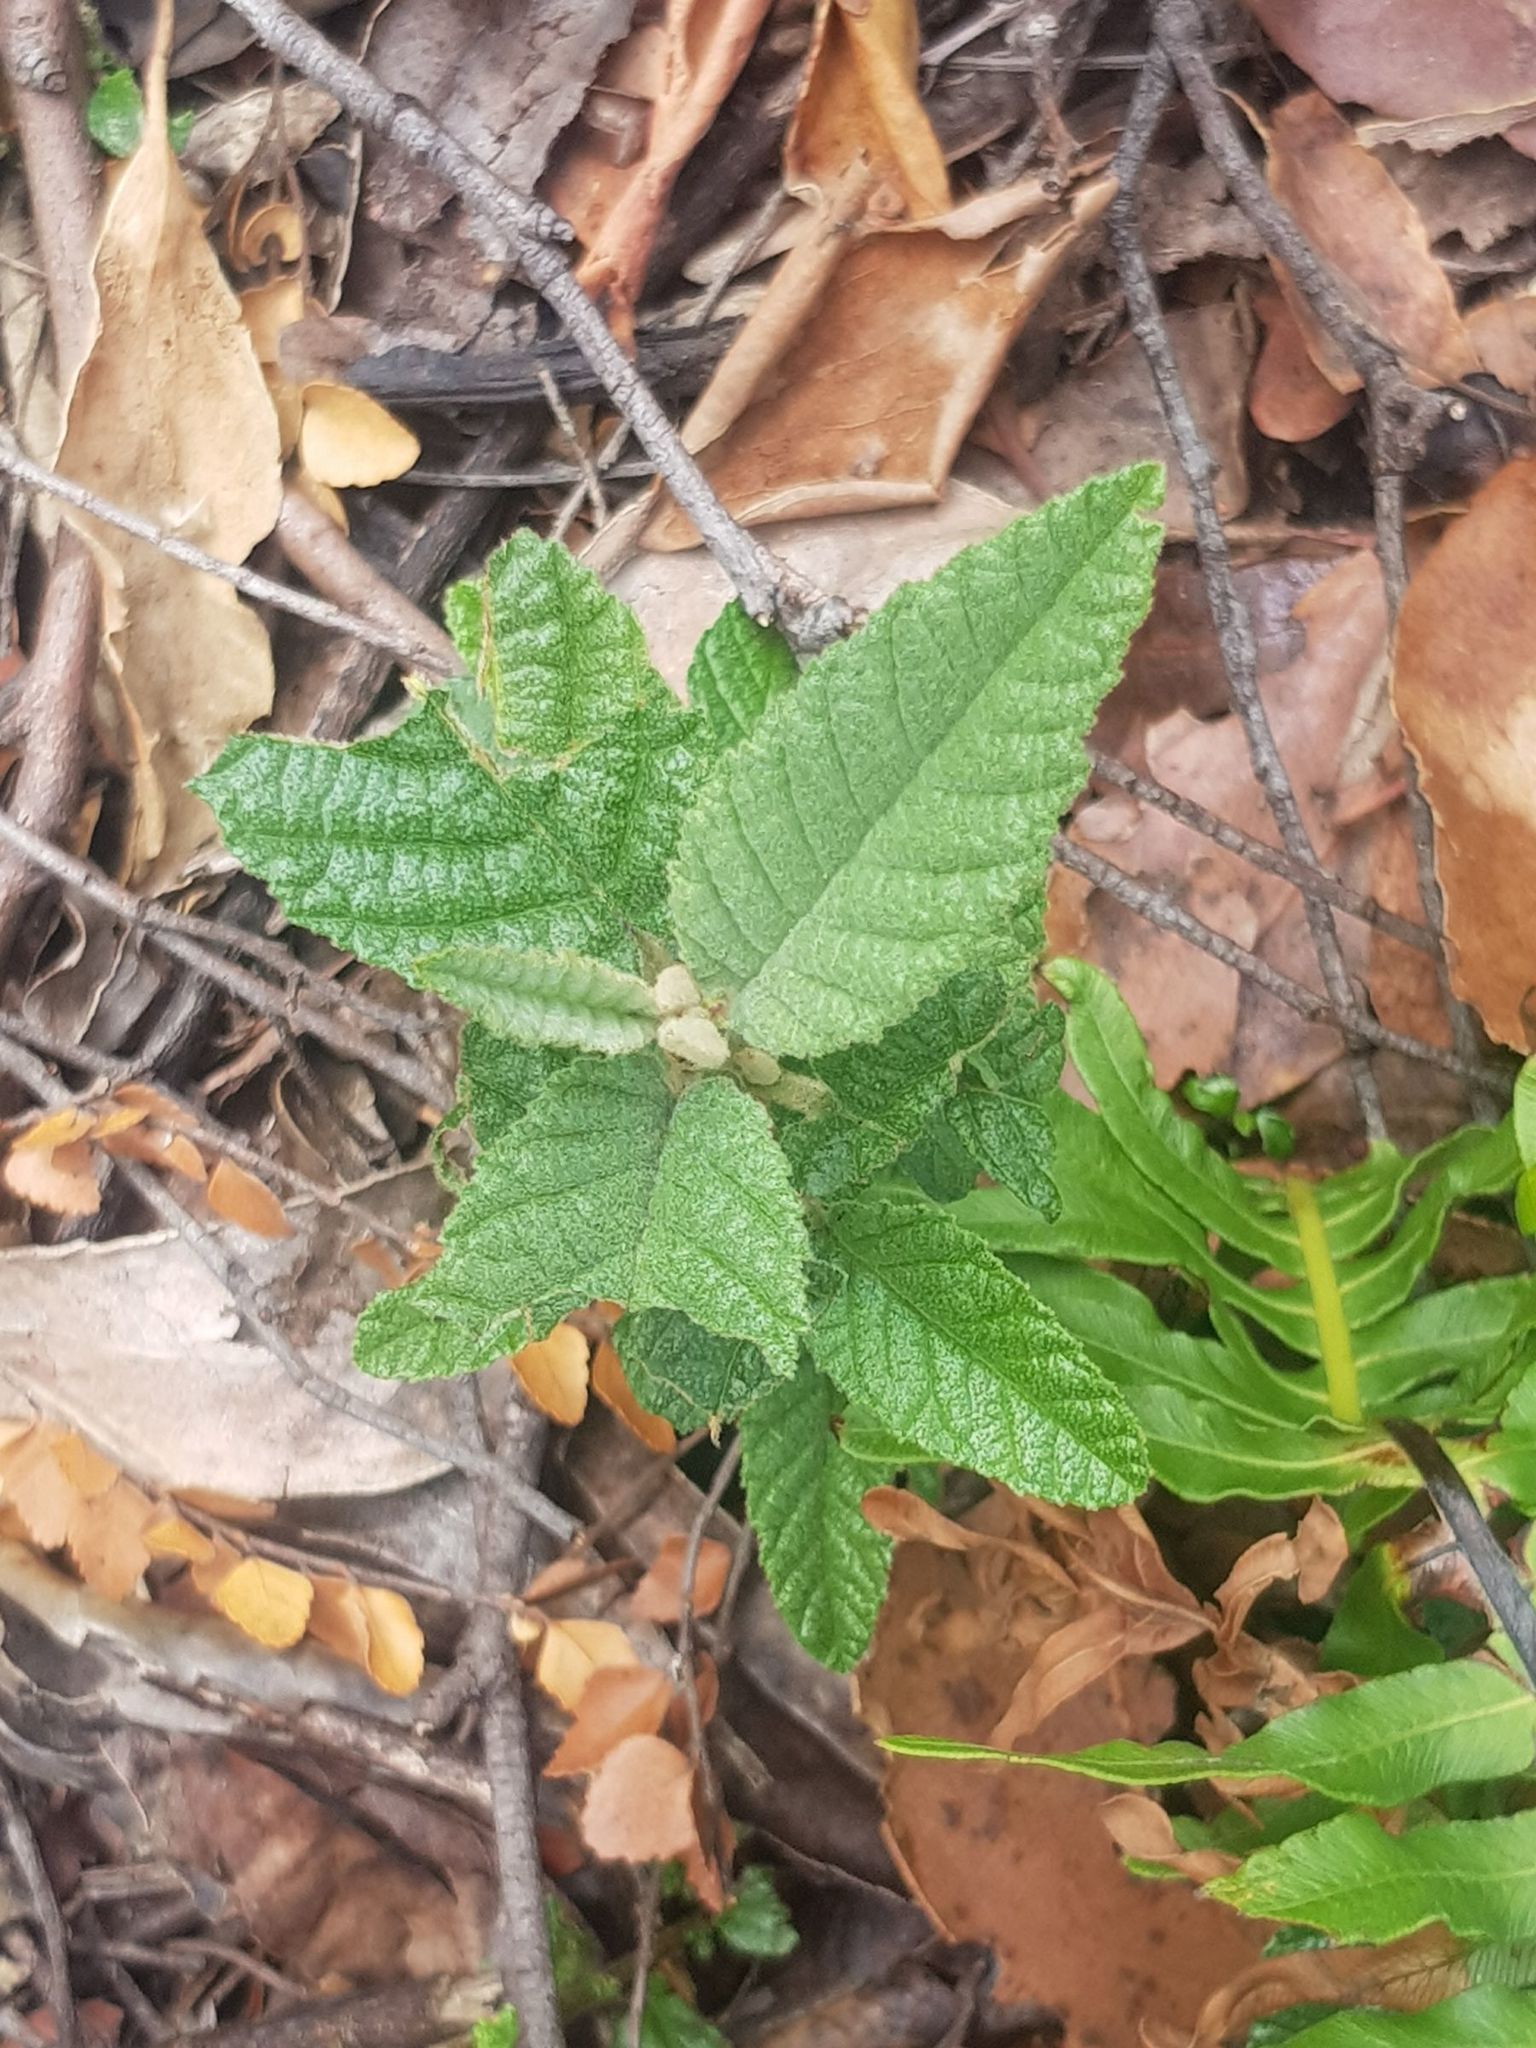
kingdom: Plantae
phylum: Tracheophyta
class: Magnoliopsida
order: Rosales
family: Rhamnaceae
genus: Pomaderris
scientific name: Pomaderris apetala
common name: Hazel pomaderris
